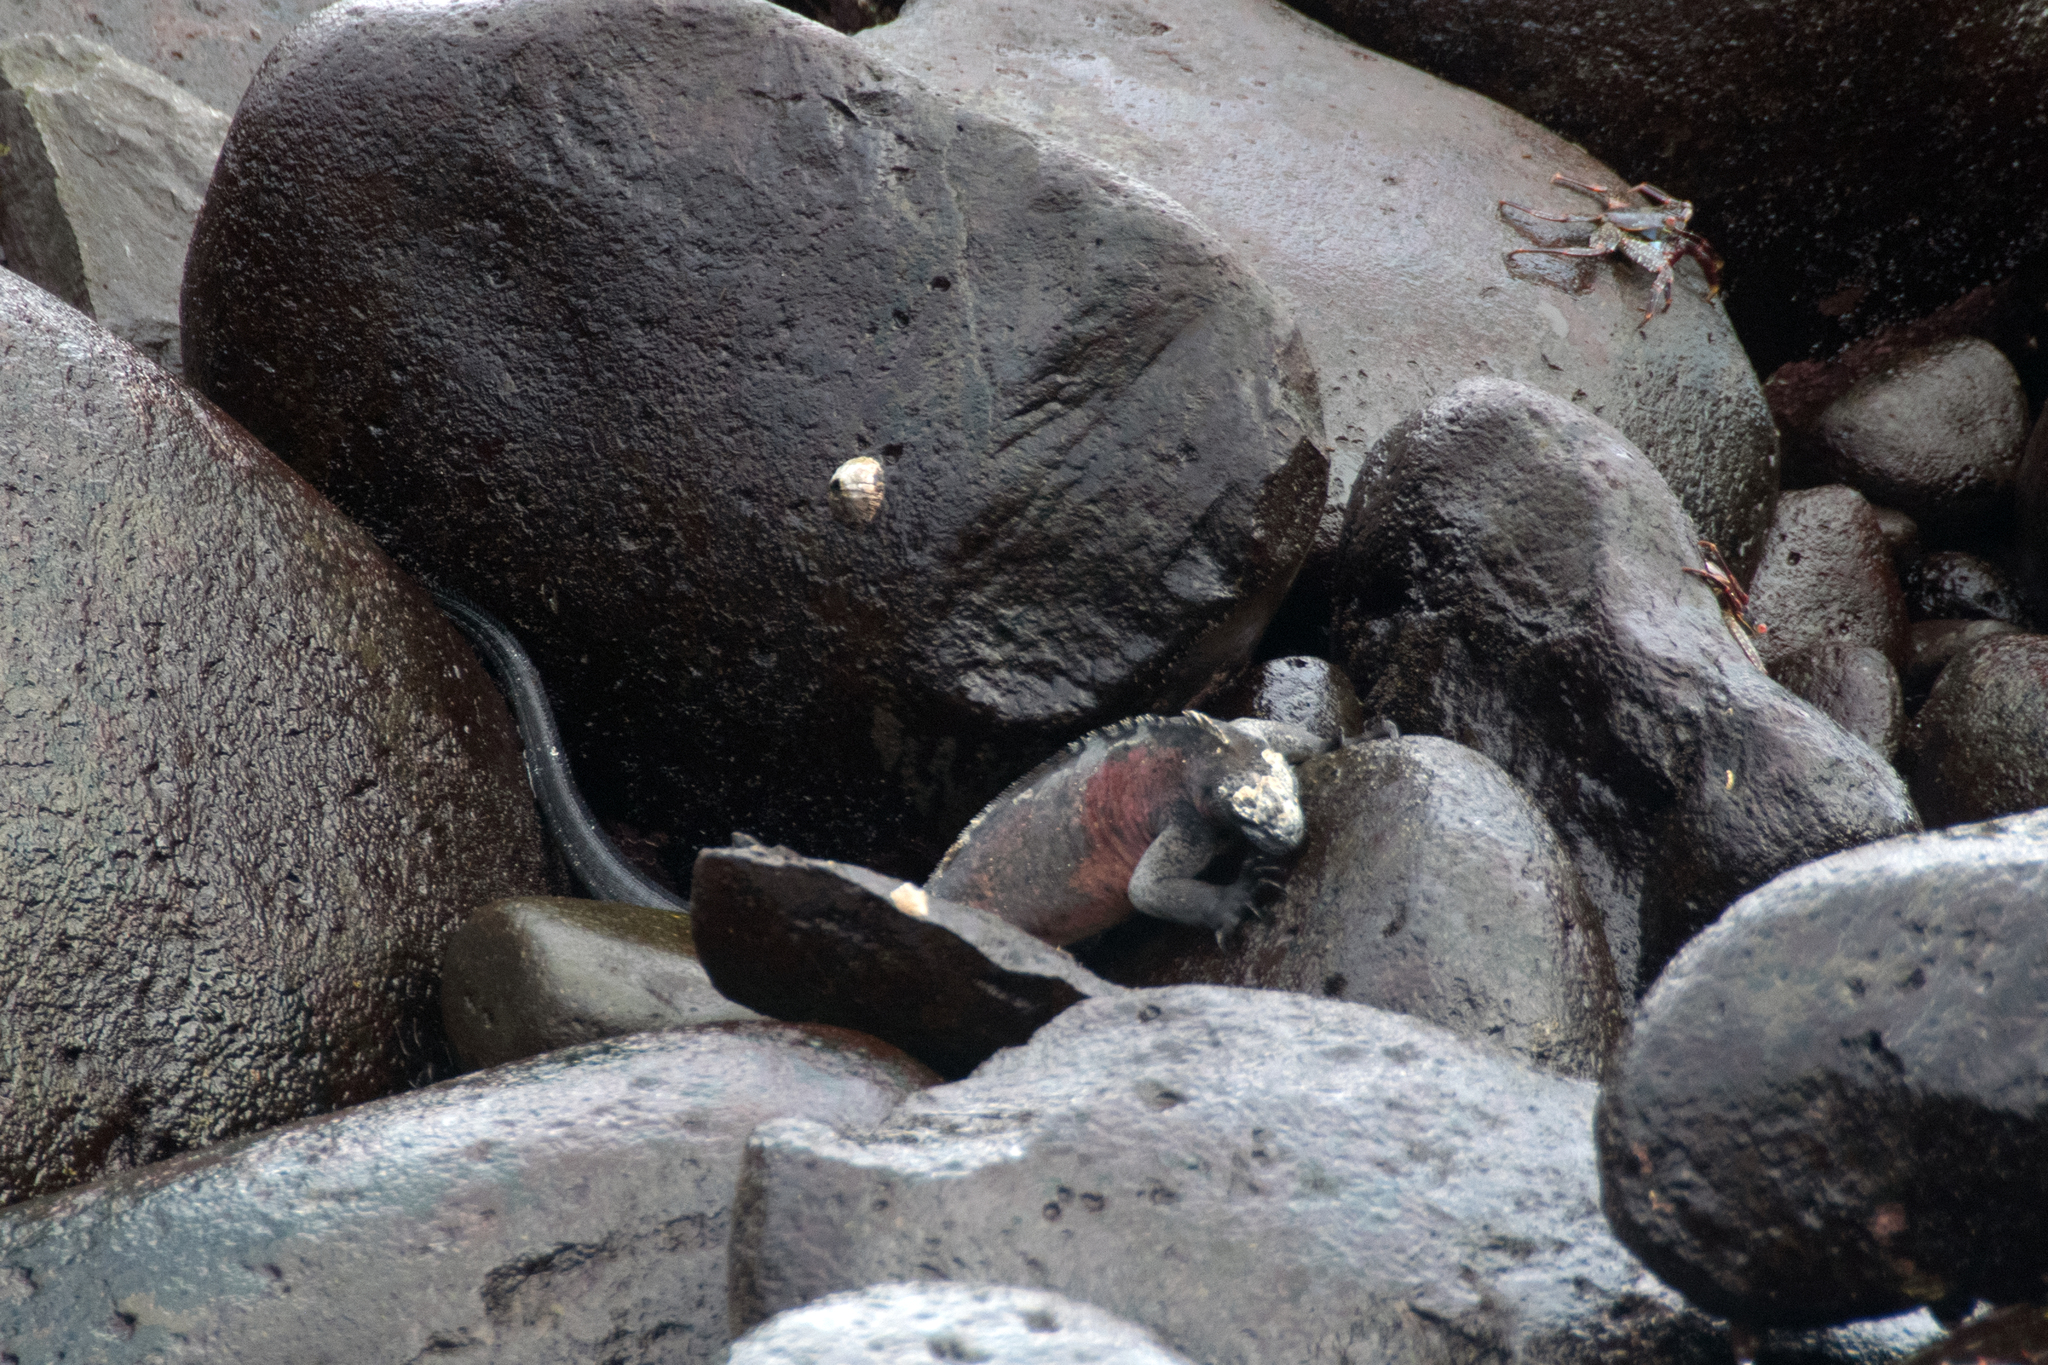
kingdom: Animalia
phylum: Chordata
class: Squamata
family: Iguanidae
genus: Amblyrhynchus
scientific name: Amblyrhynchus cristatus
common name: Marine iguana
